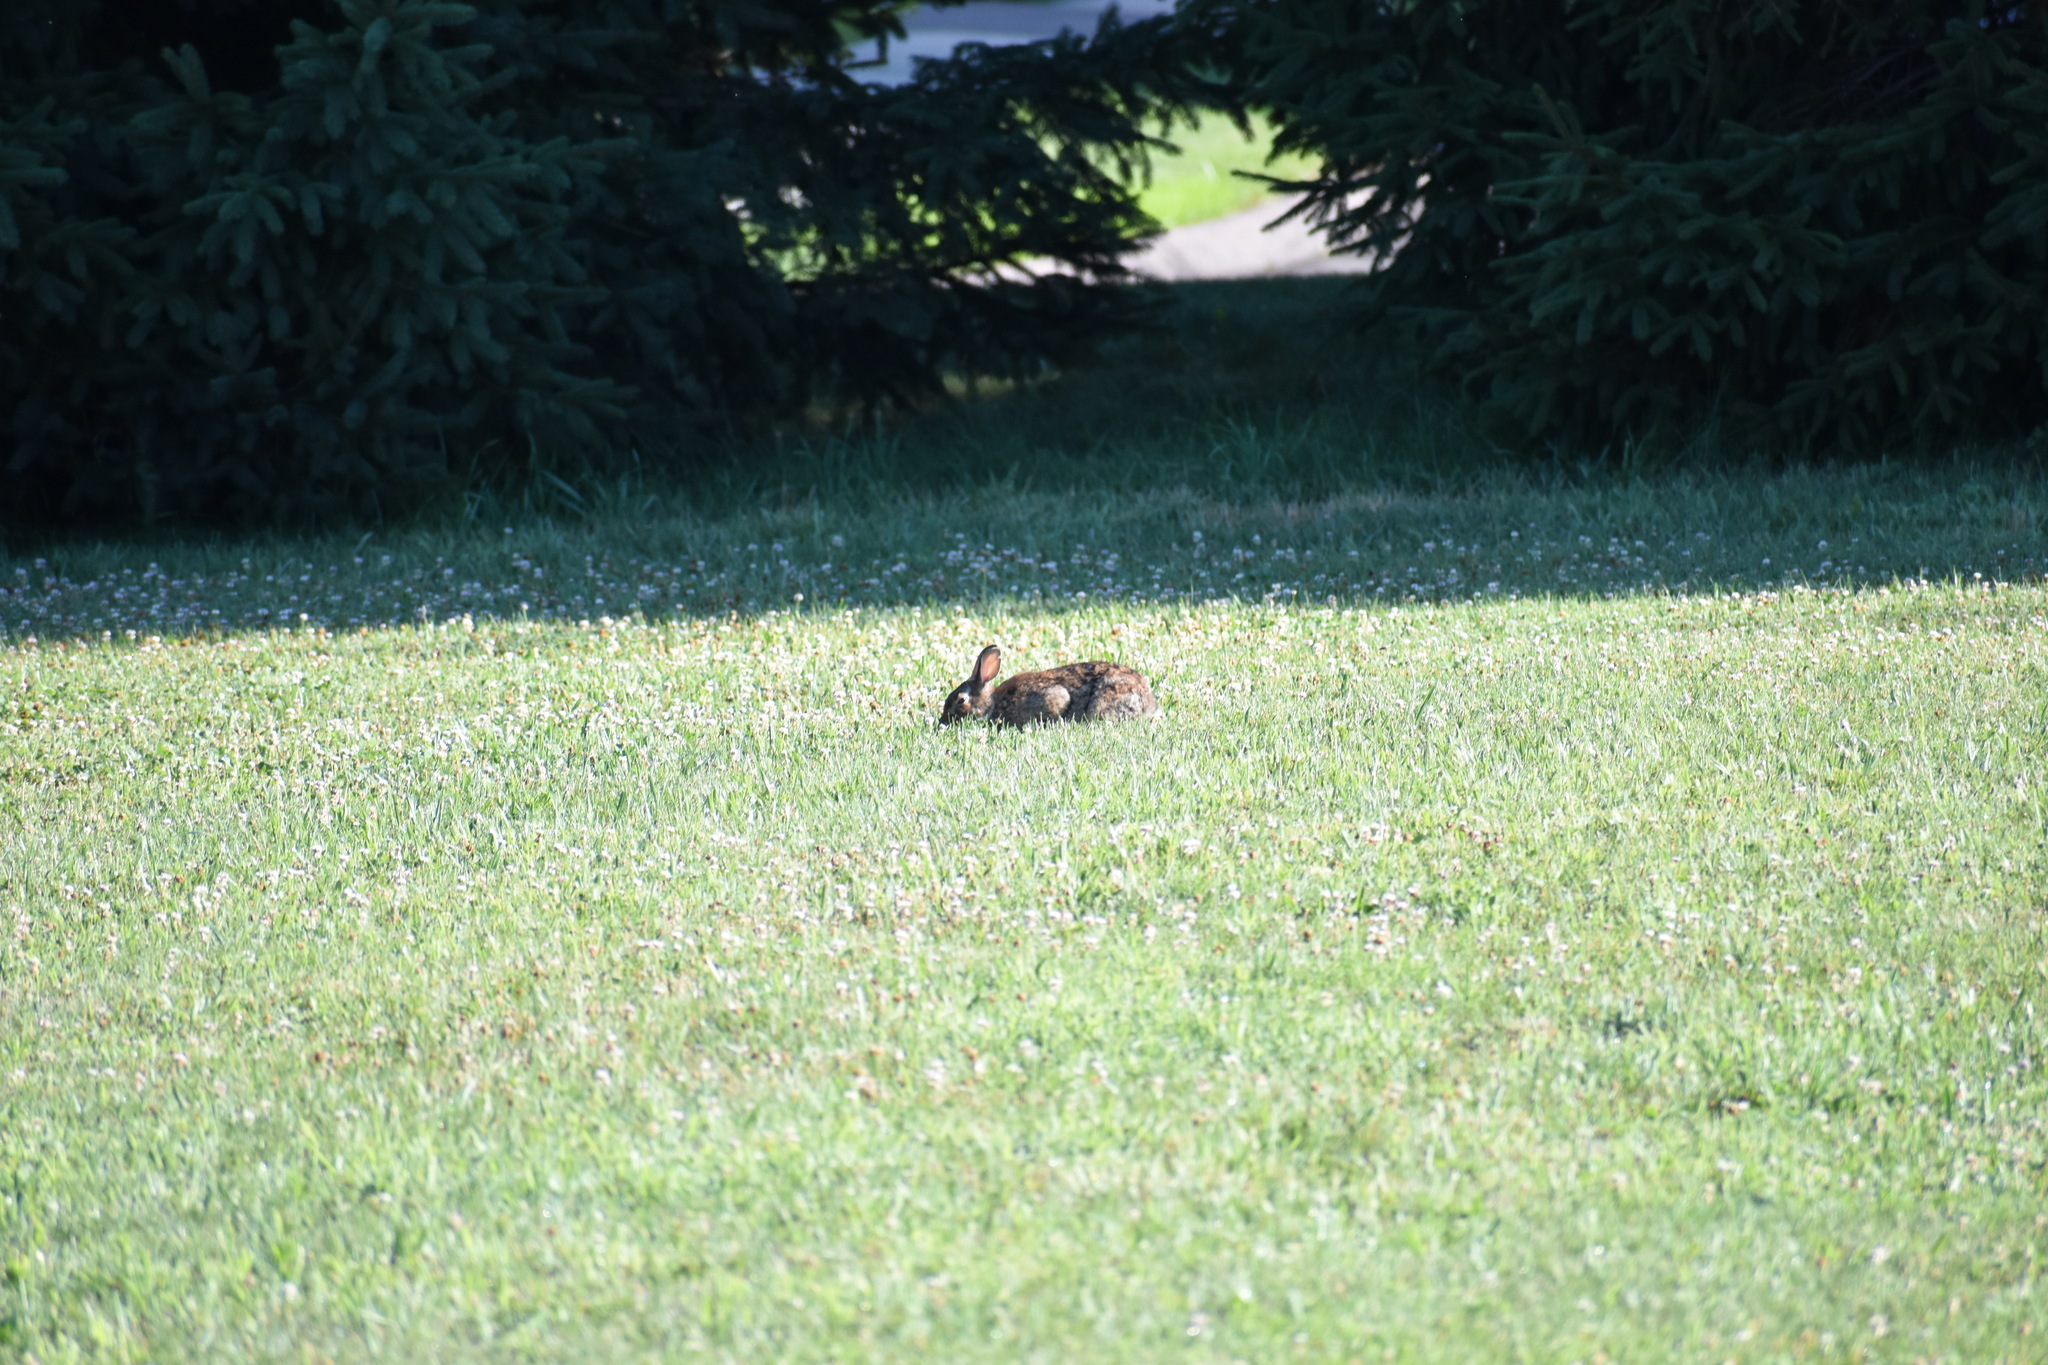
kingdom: Animalia
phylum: Chordata
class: Mammalia
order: Lagomorpha
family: Leporidae
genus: Sylvilagus
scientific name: Sylvilagus floridanus
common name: Eastern cottontail
